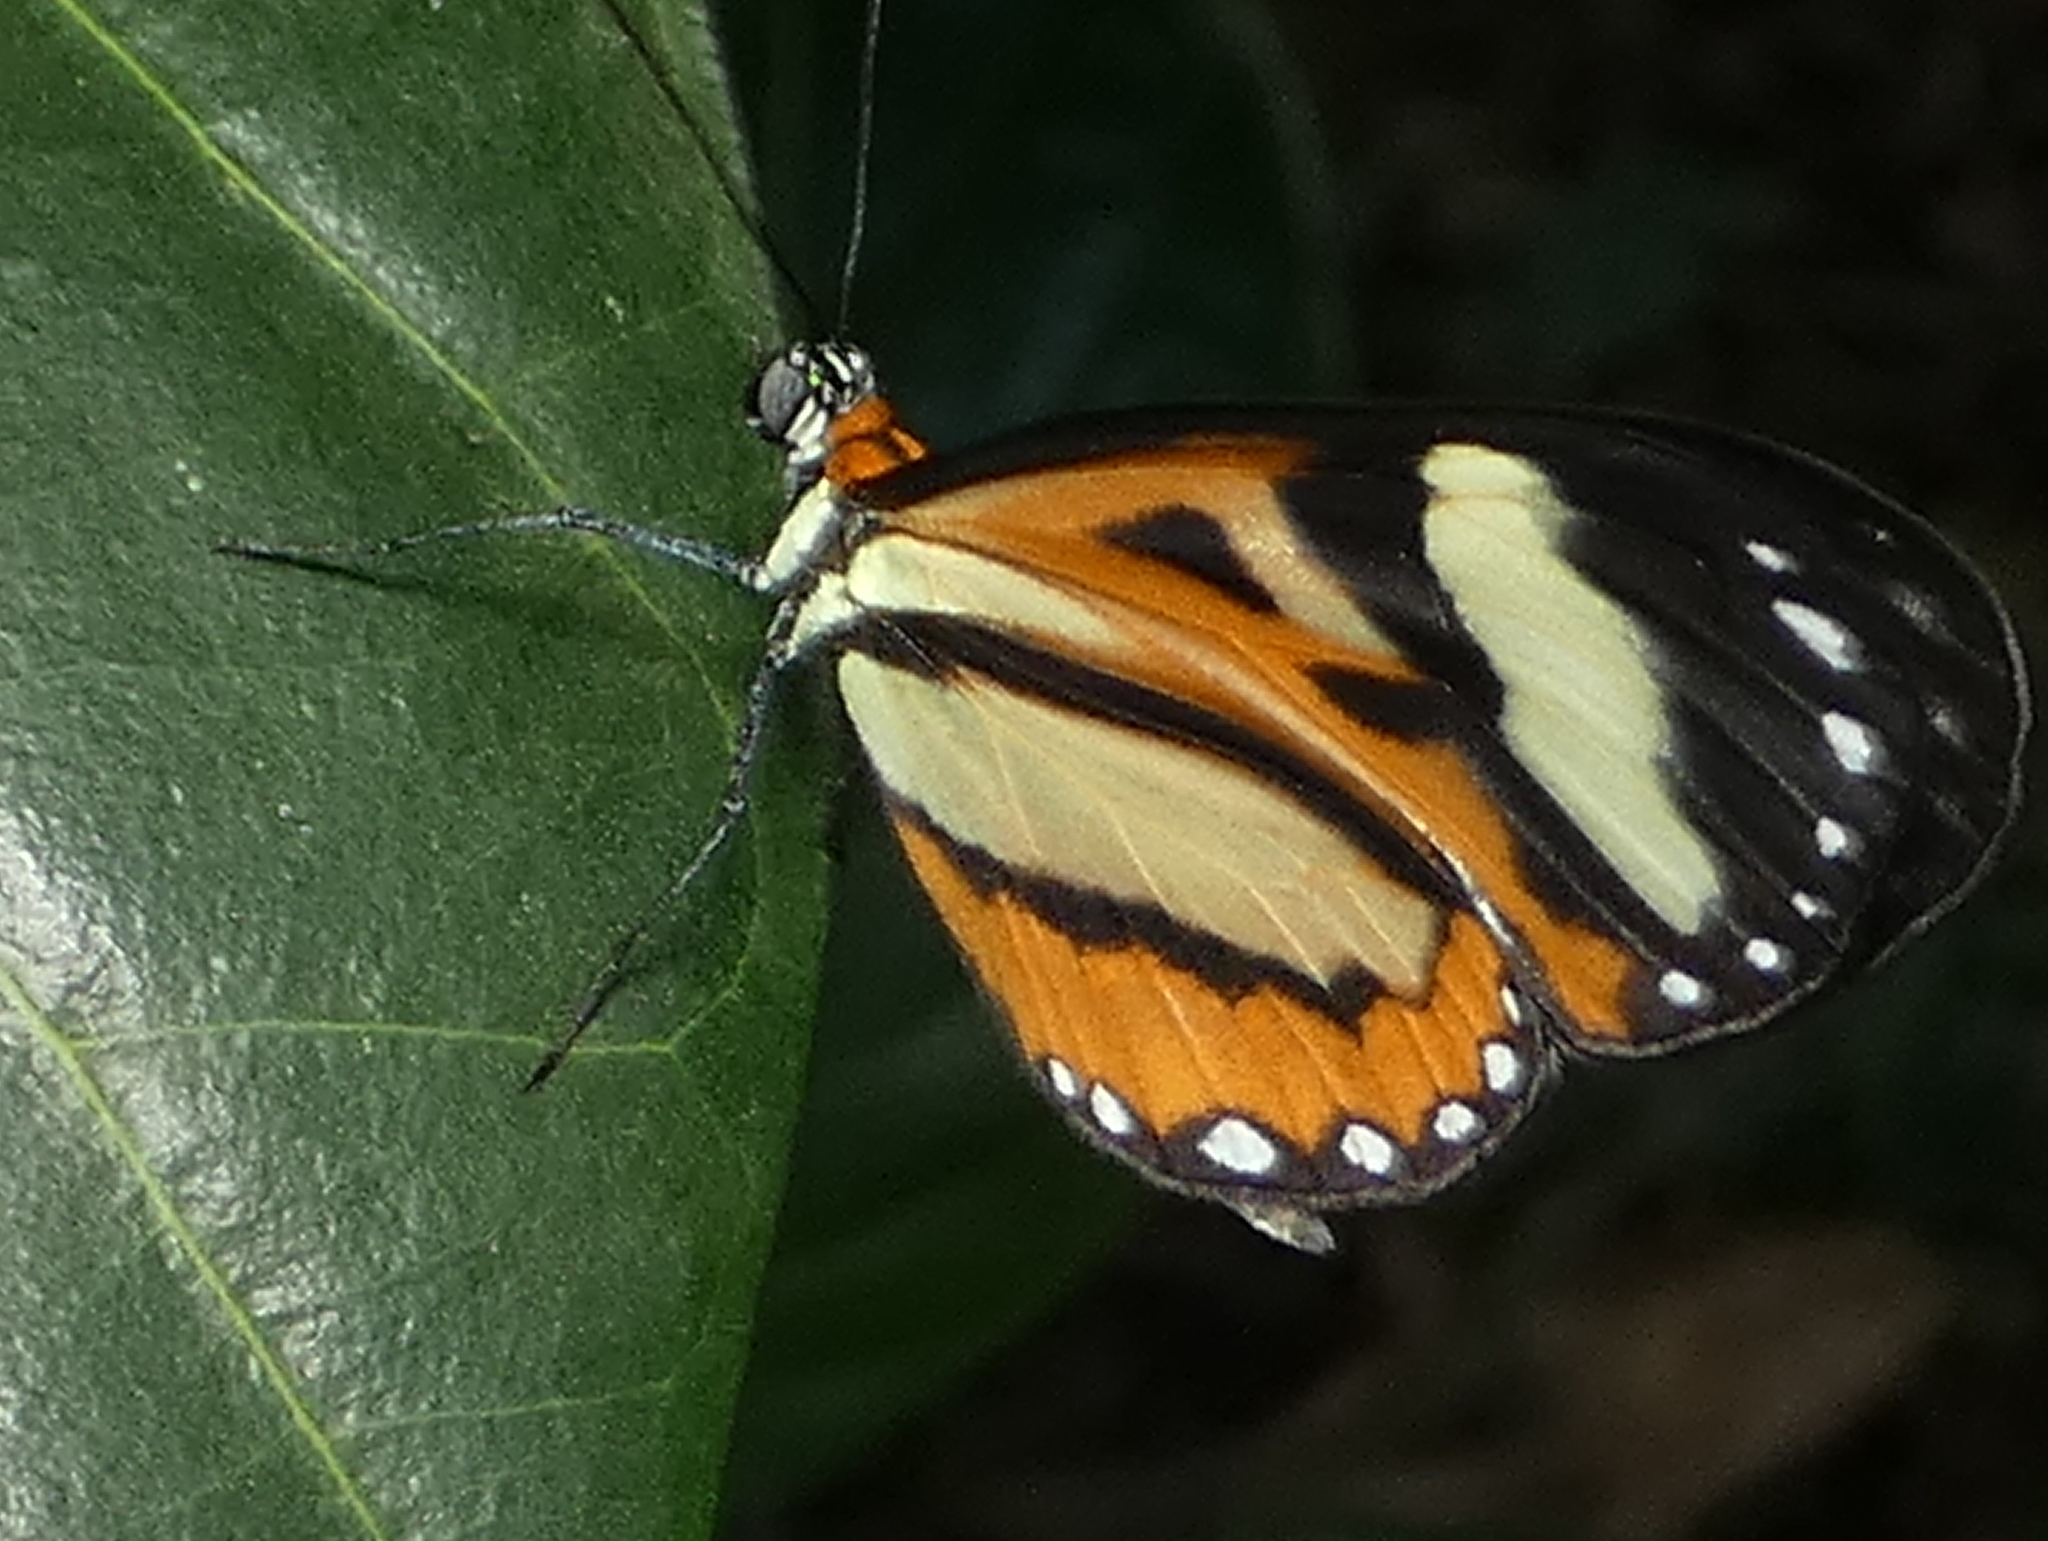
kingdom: Animalia
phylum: Arthropoda
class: Insecta
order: Lepidoptera
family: Nymphalidae
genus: Hypothyris
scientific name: Hypothyris euclea
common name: Euclea tigerwing
